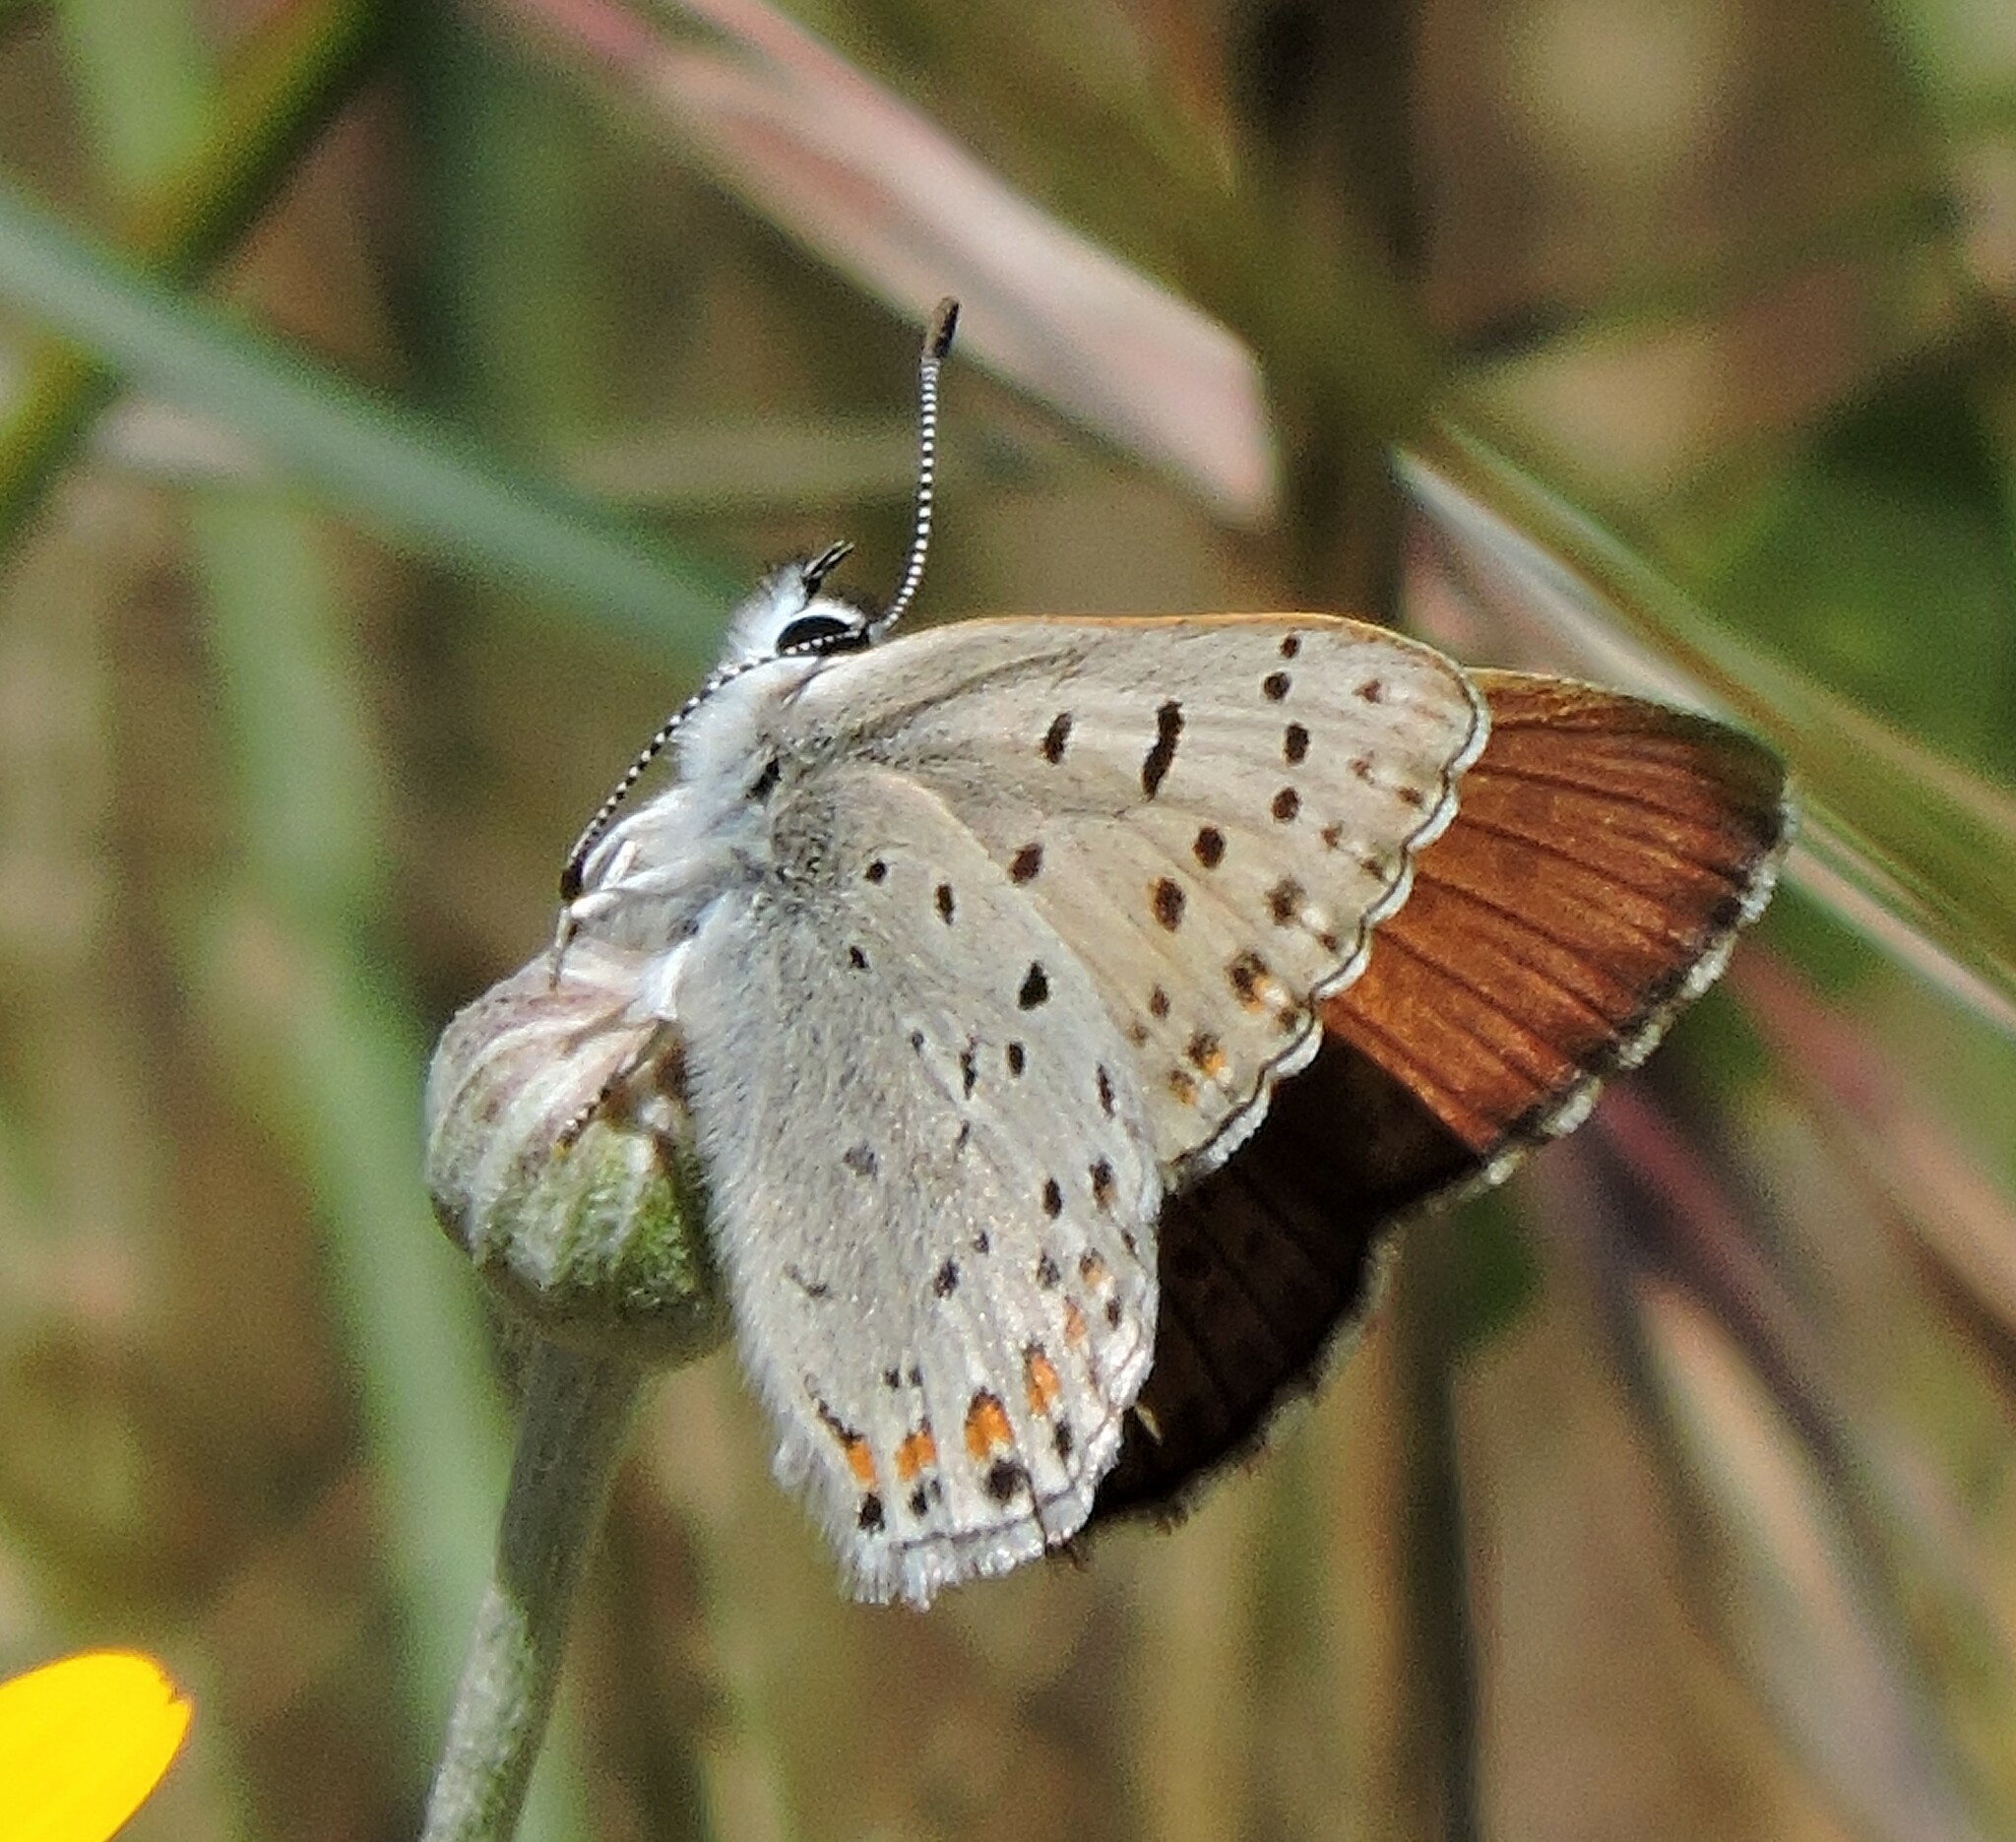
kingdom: Animalia
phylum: Arthropoda
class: Insecta
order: Lepidoptera
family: Lycaenidae
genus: Tharsalea
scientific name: Tharsalea gorgon
